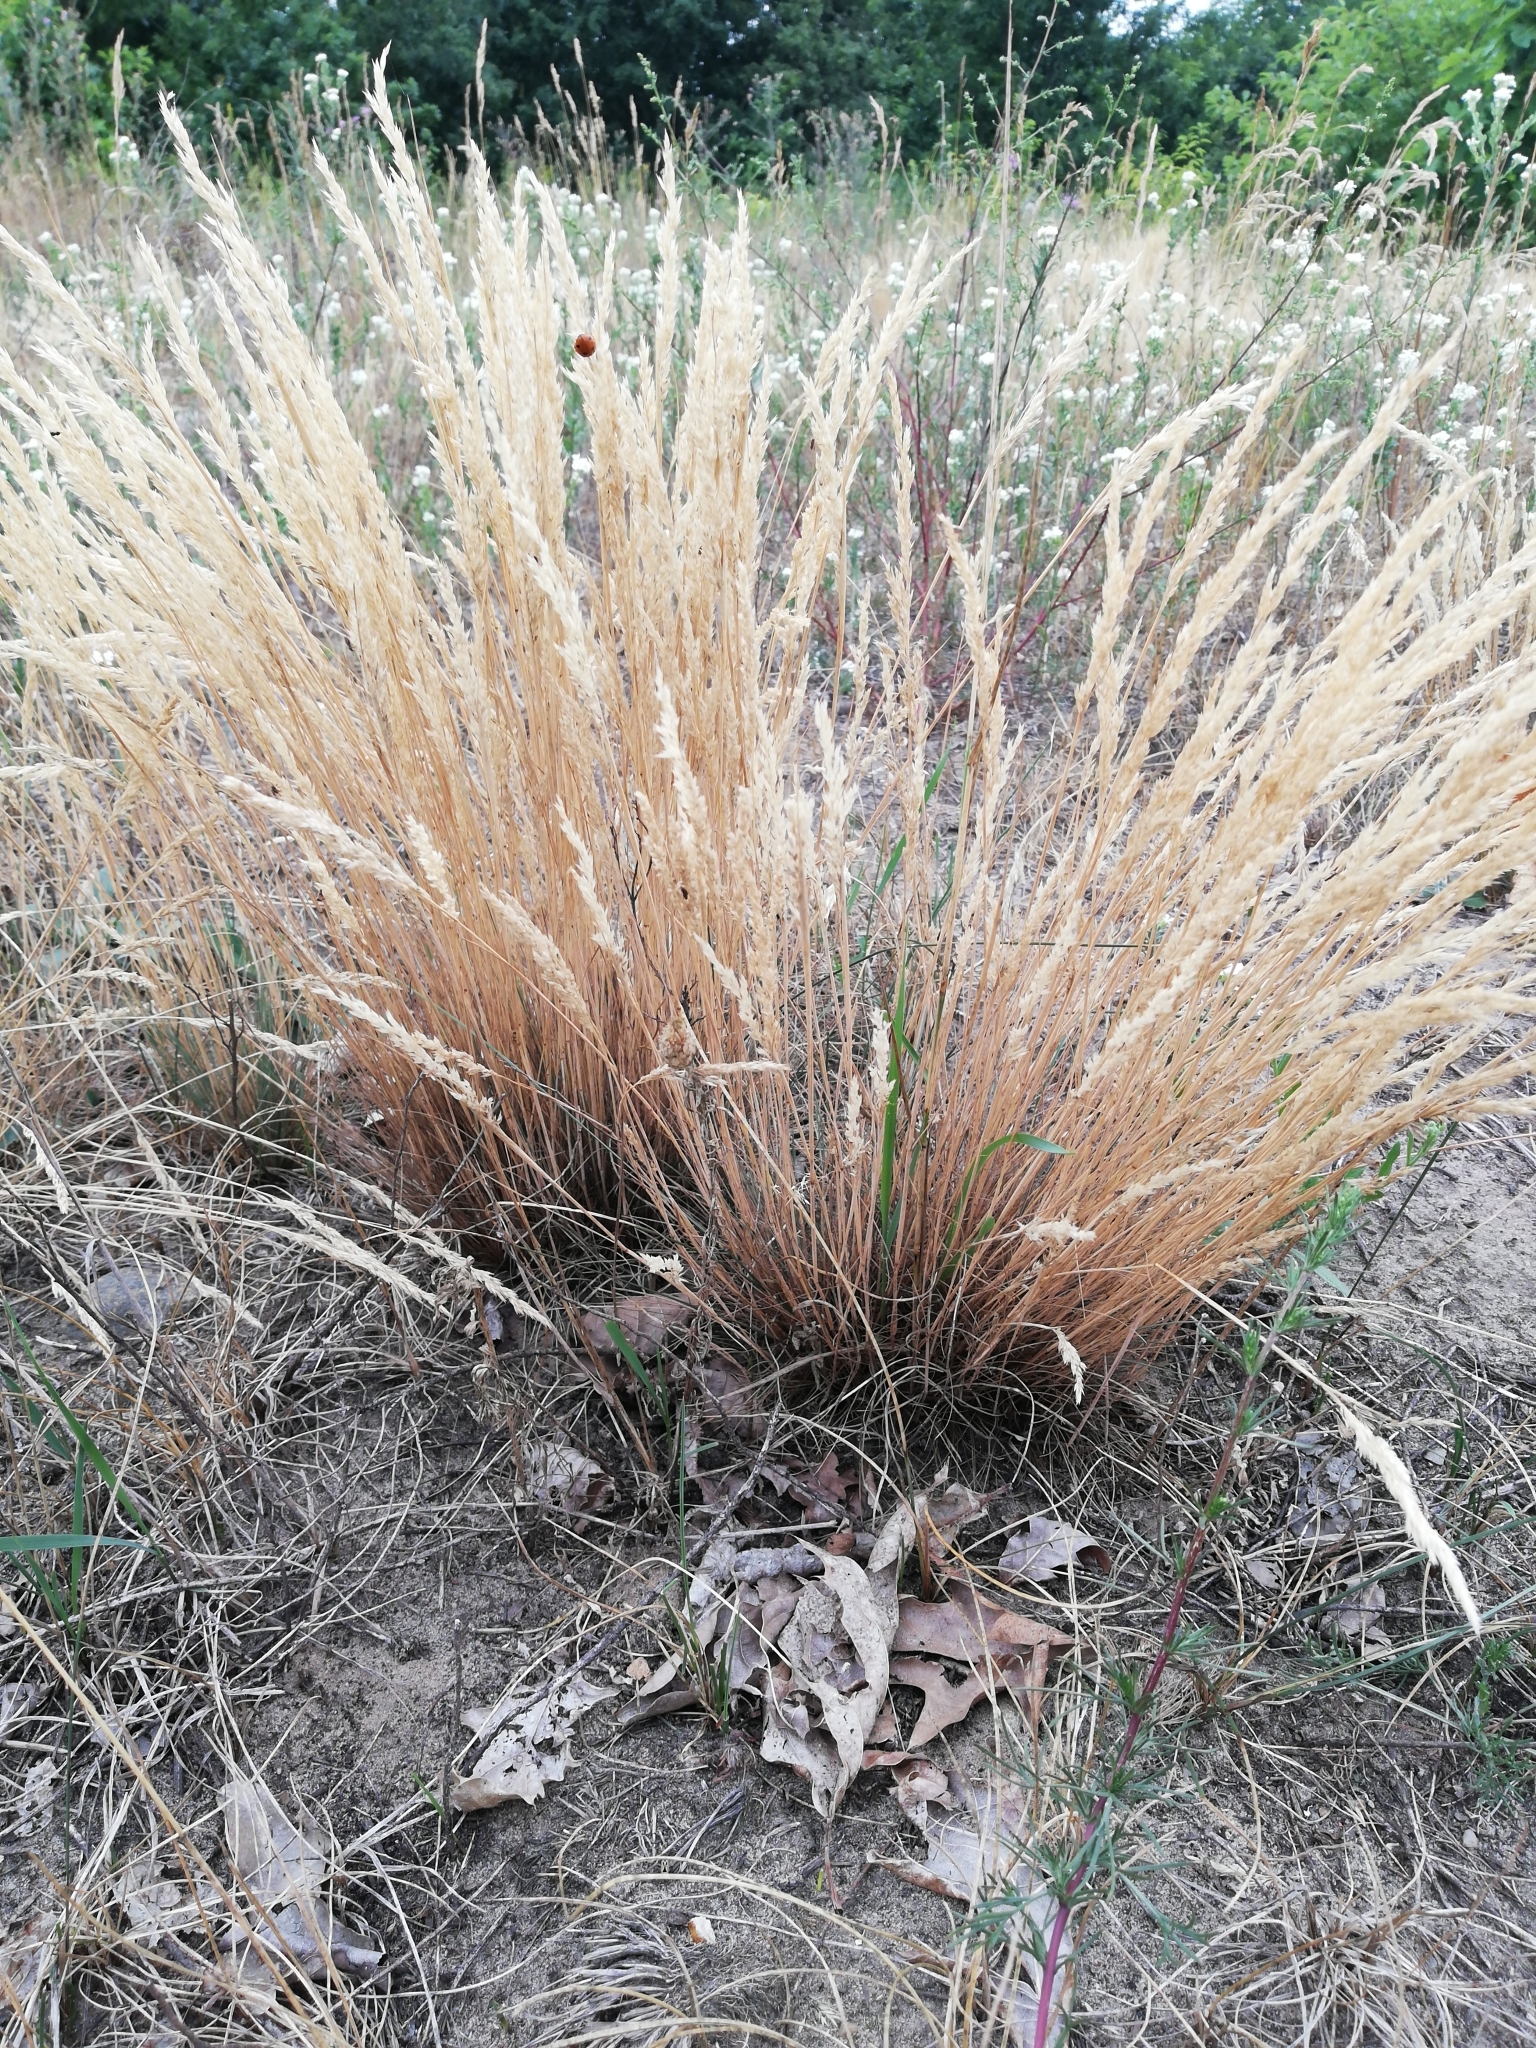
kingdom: Plantae
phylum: Tracheophyta
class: Liliopsida
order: Poales
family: Poaceae
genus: Corynephorus
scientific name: Corynephorus canescens
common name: Grey hair-grass
